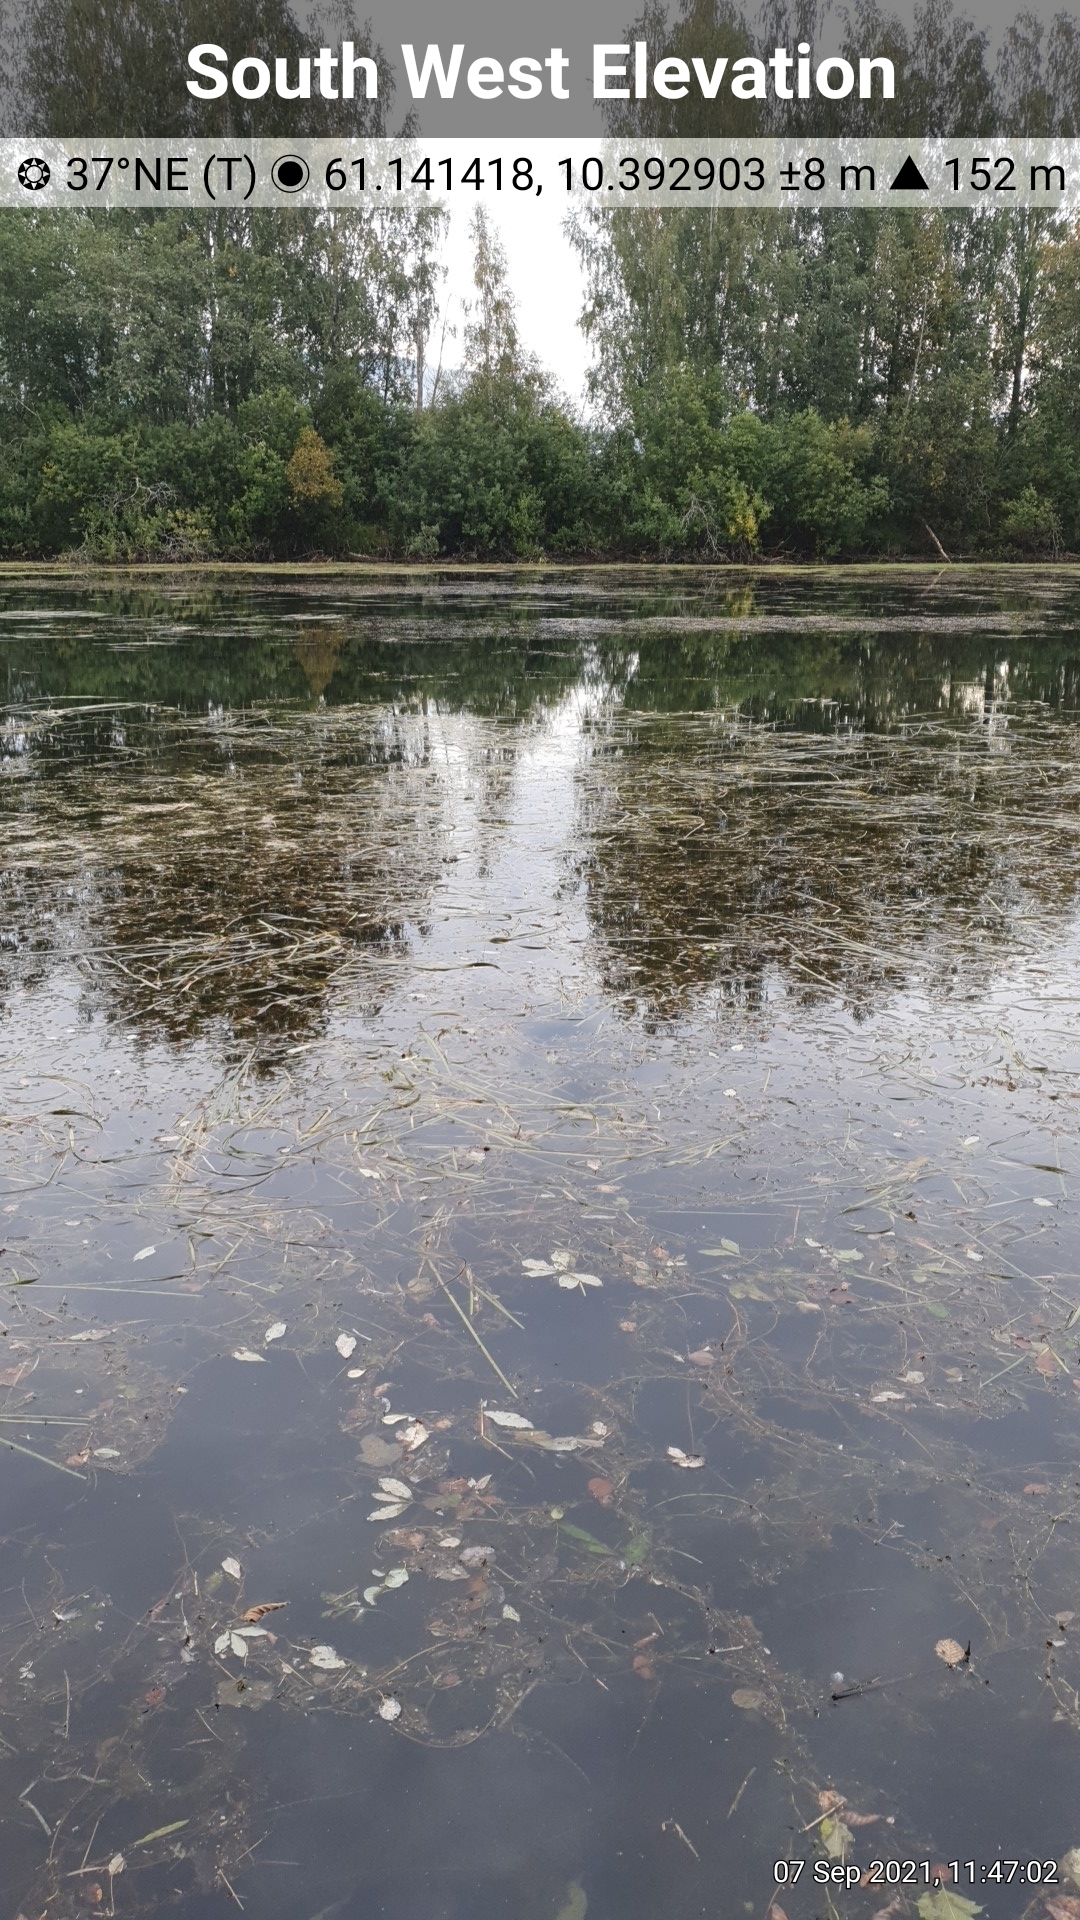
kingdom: Plantae
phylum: Tracheophyta
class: Liliopsida
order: Alismatales
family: Potamogetonaceae
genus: Potamogeton
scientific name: Potamogeton perfoliatus
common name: Perfoliate pondweed
